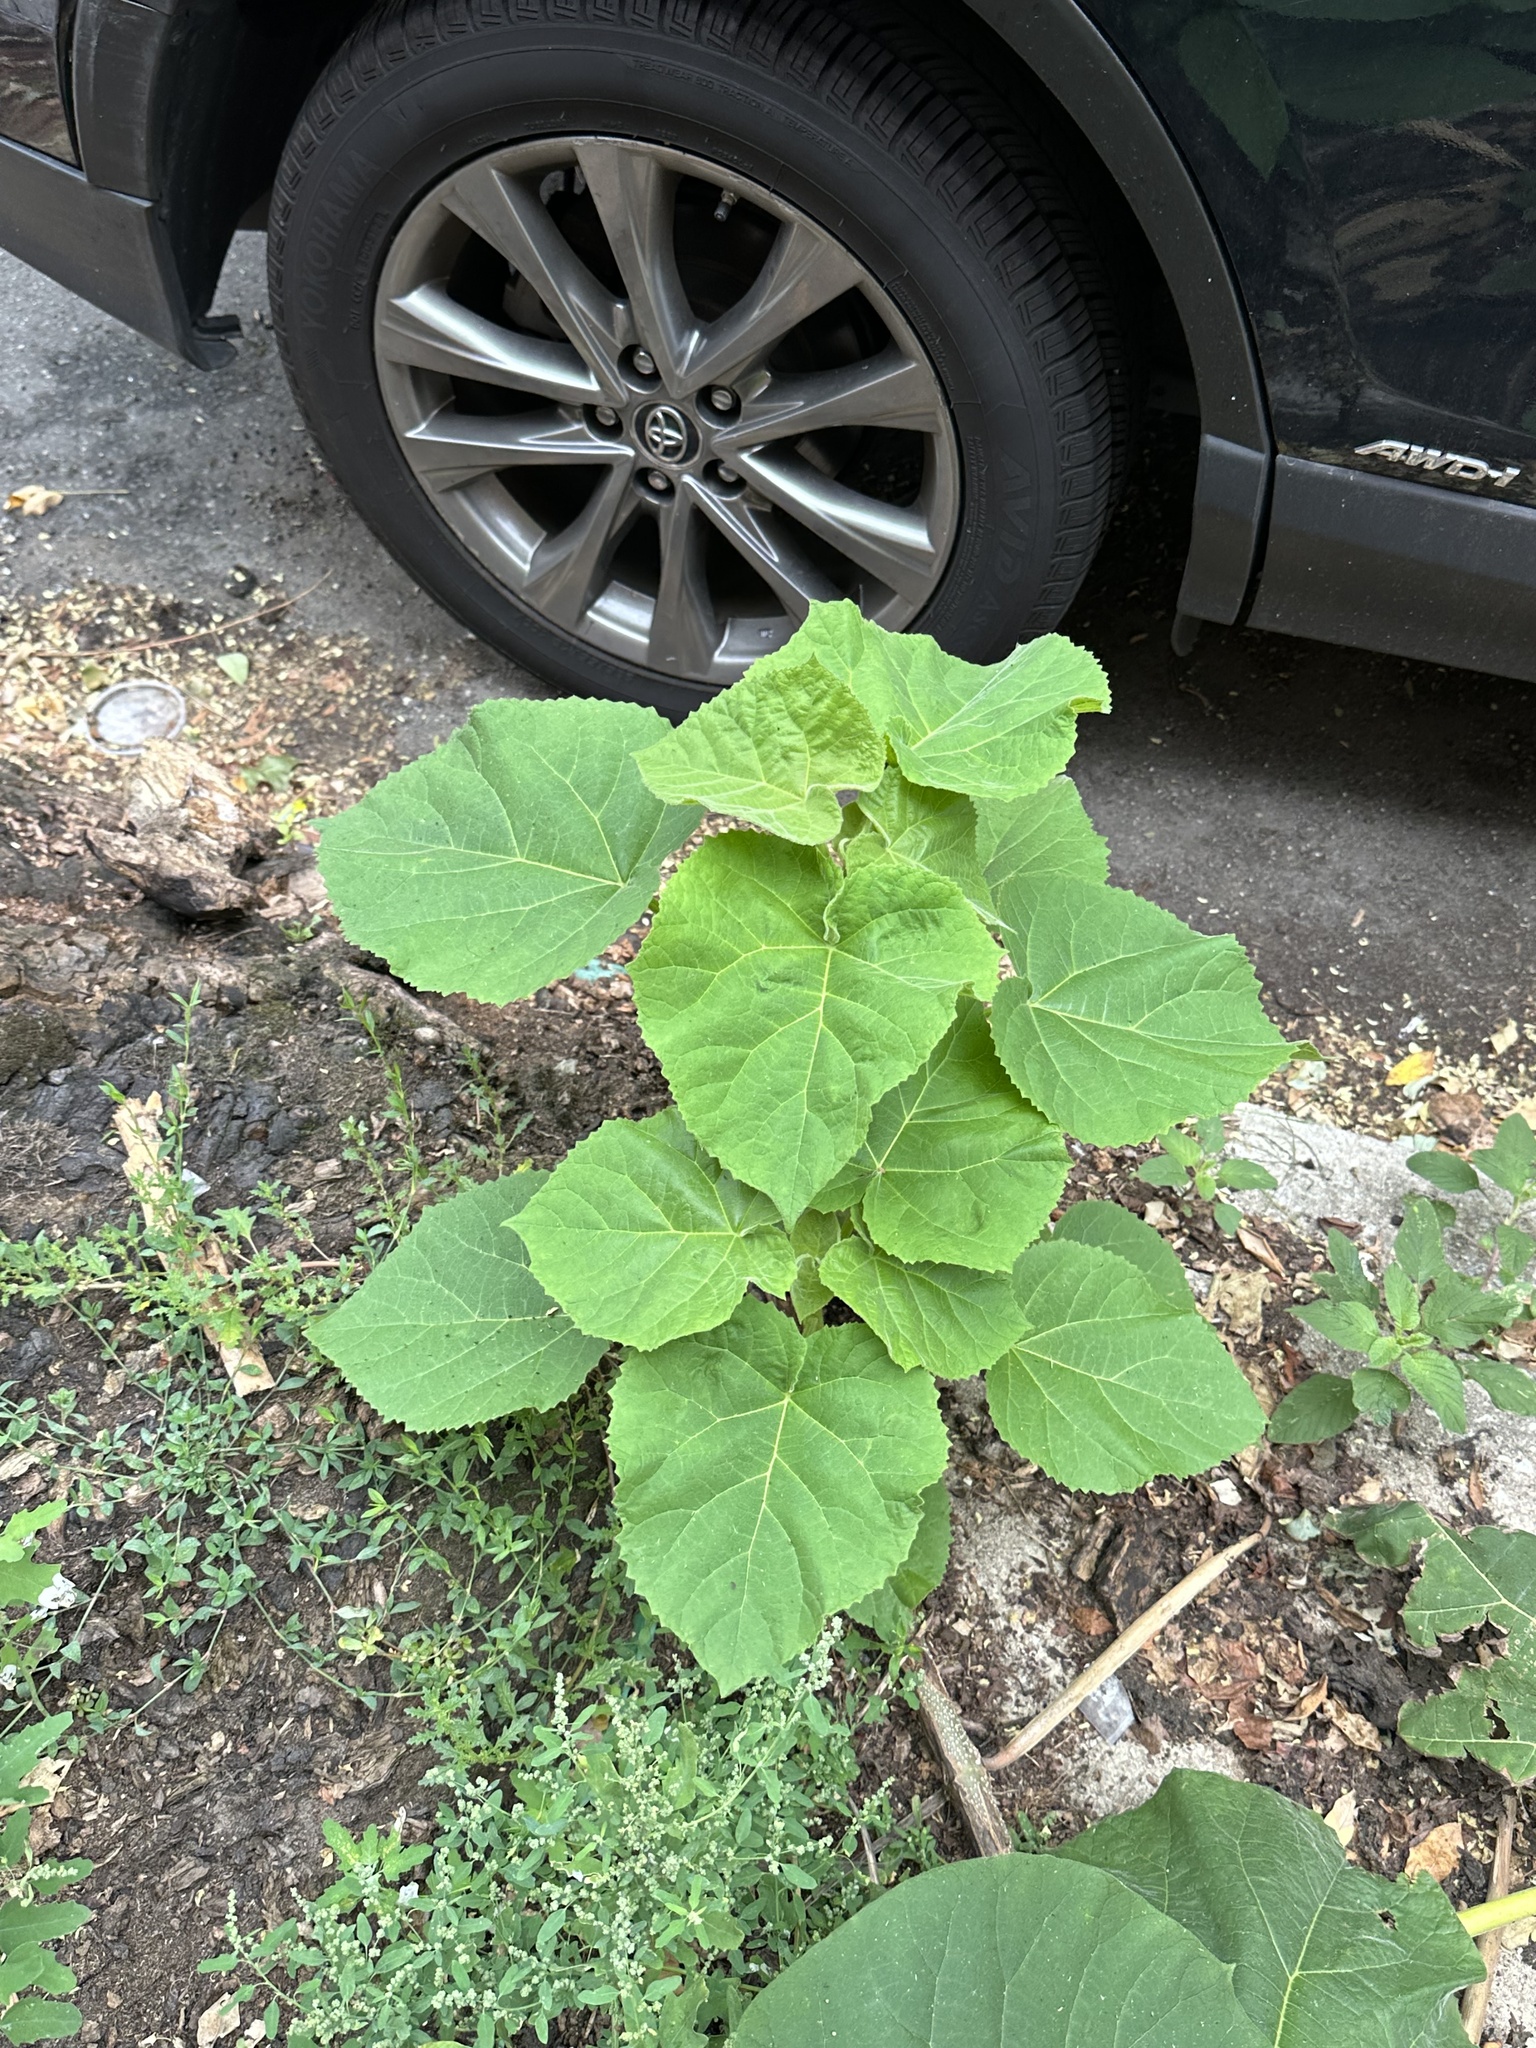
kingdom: Plantae
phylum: Tracheophyta
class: Magnoliopsida
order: Lamiales
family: Paulowniaceae
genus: Paulownia
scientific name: Paulownia tomentosa
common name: Foxglove-tree
